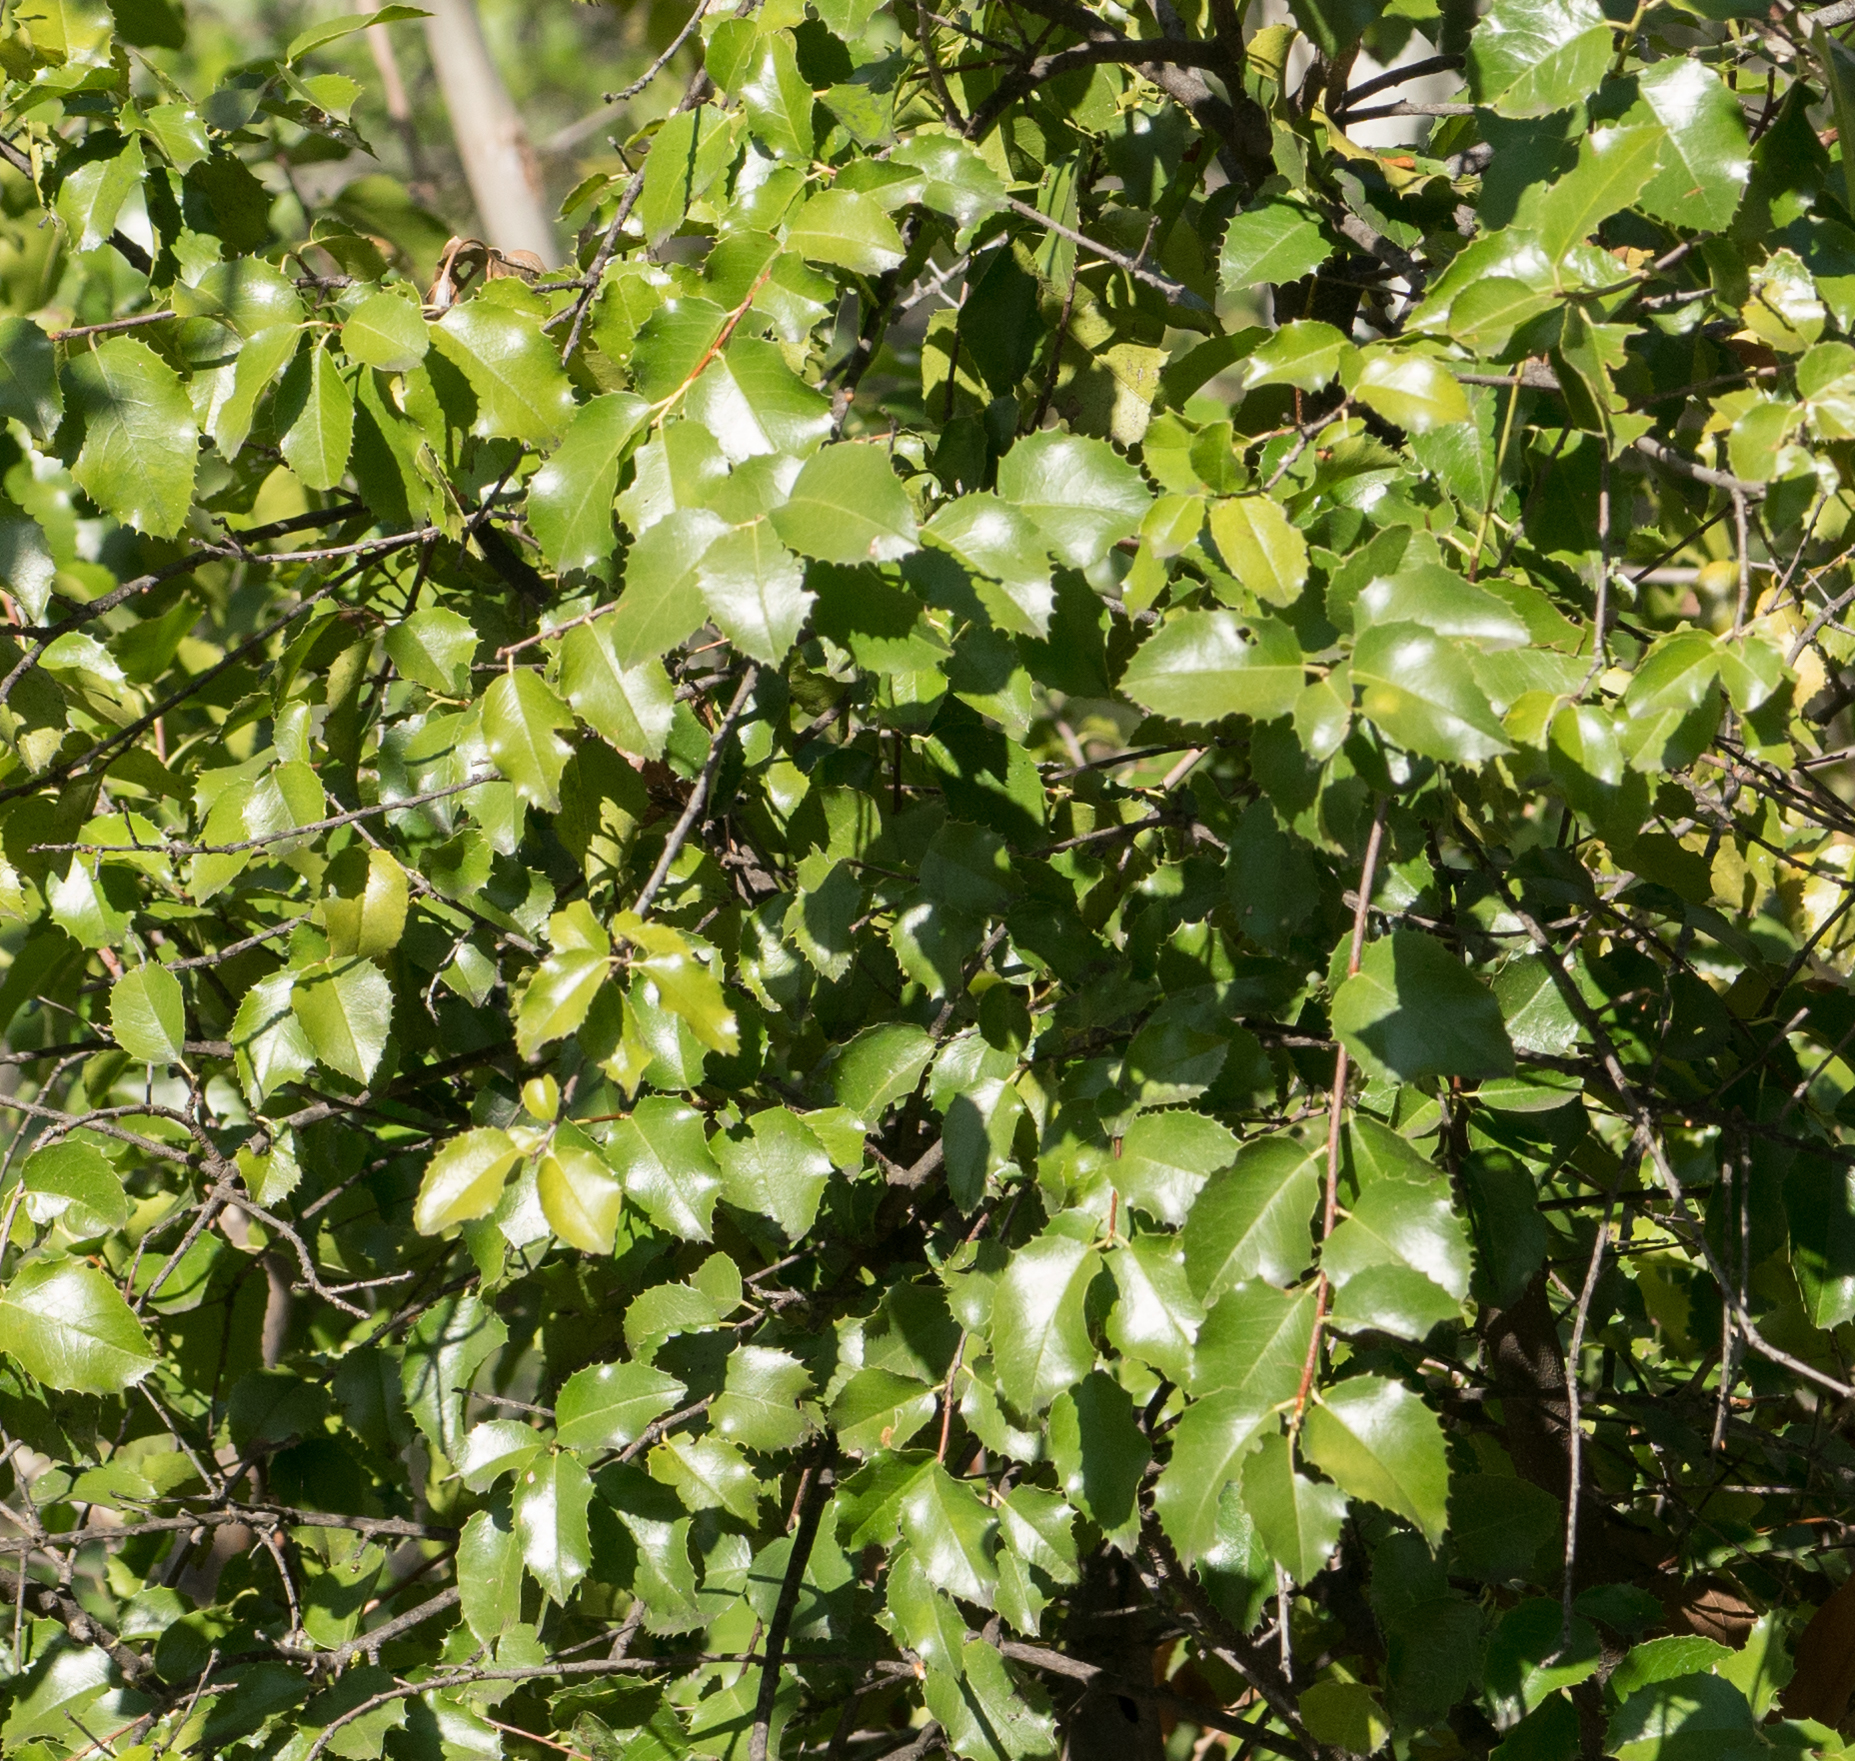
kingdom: Plantae
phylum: Tracheophyta
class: Magnoliopsida
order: Rosales
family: Rosaceae
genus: Prunus
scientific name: Prunus ilicifolia
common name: Hollyleaf cherry
